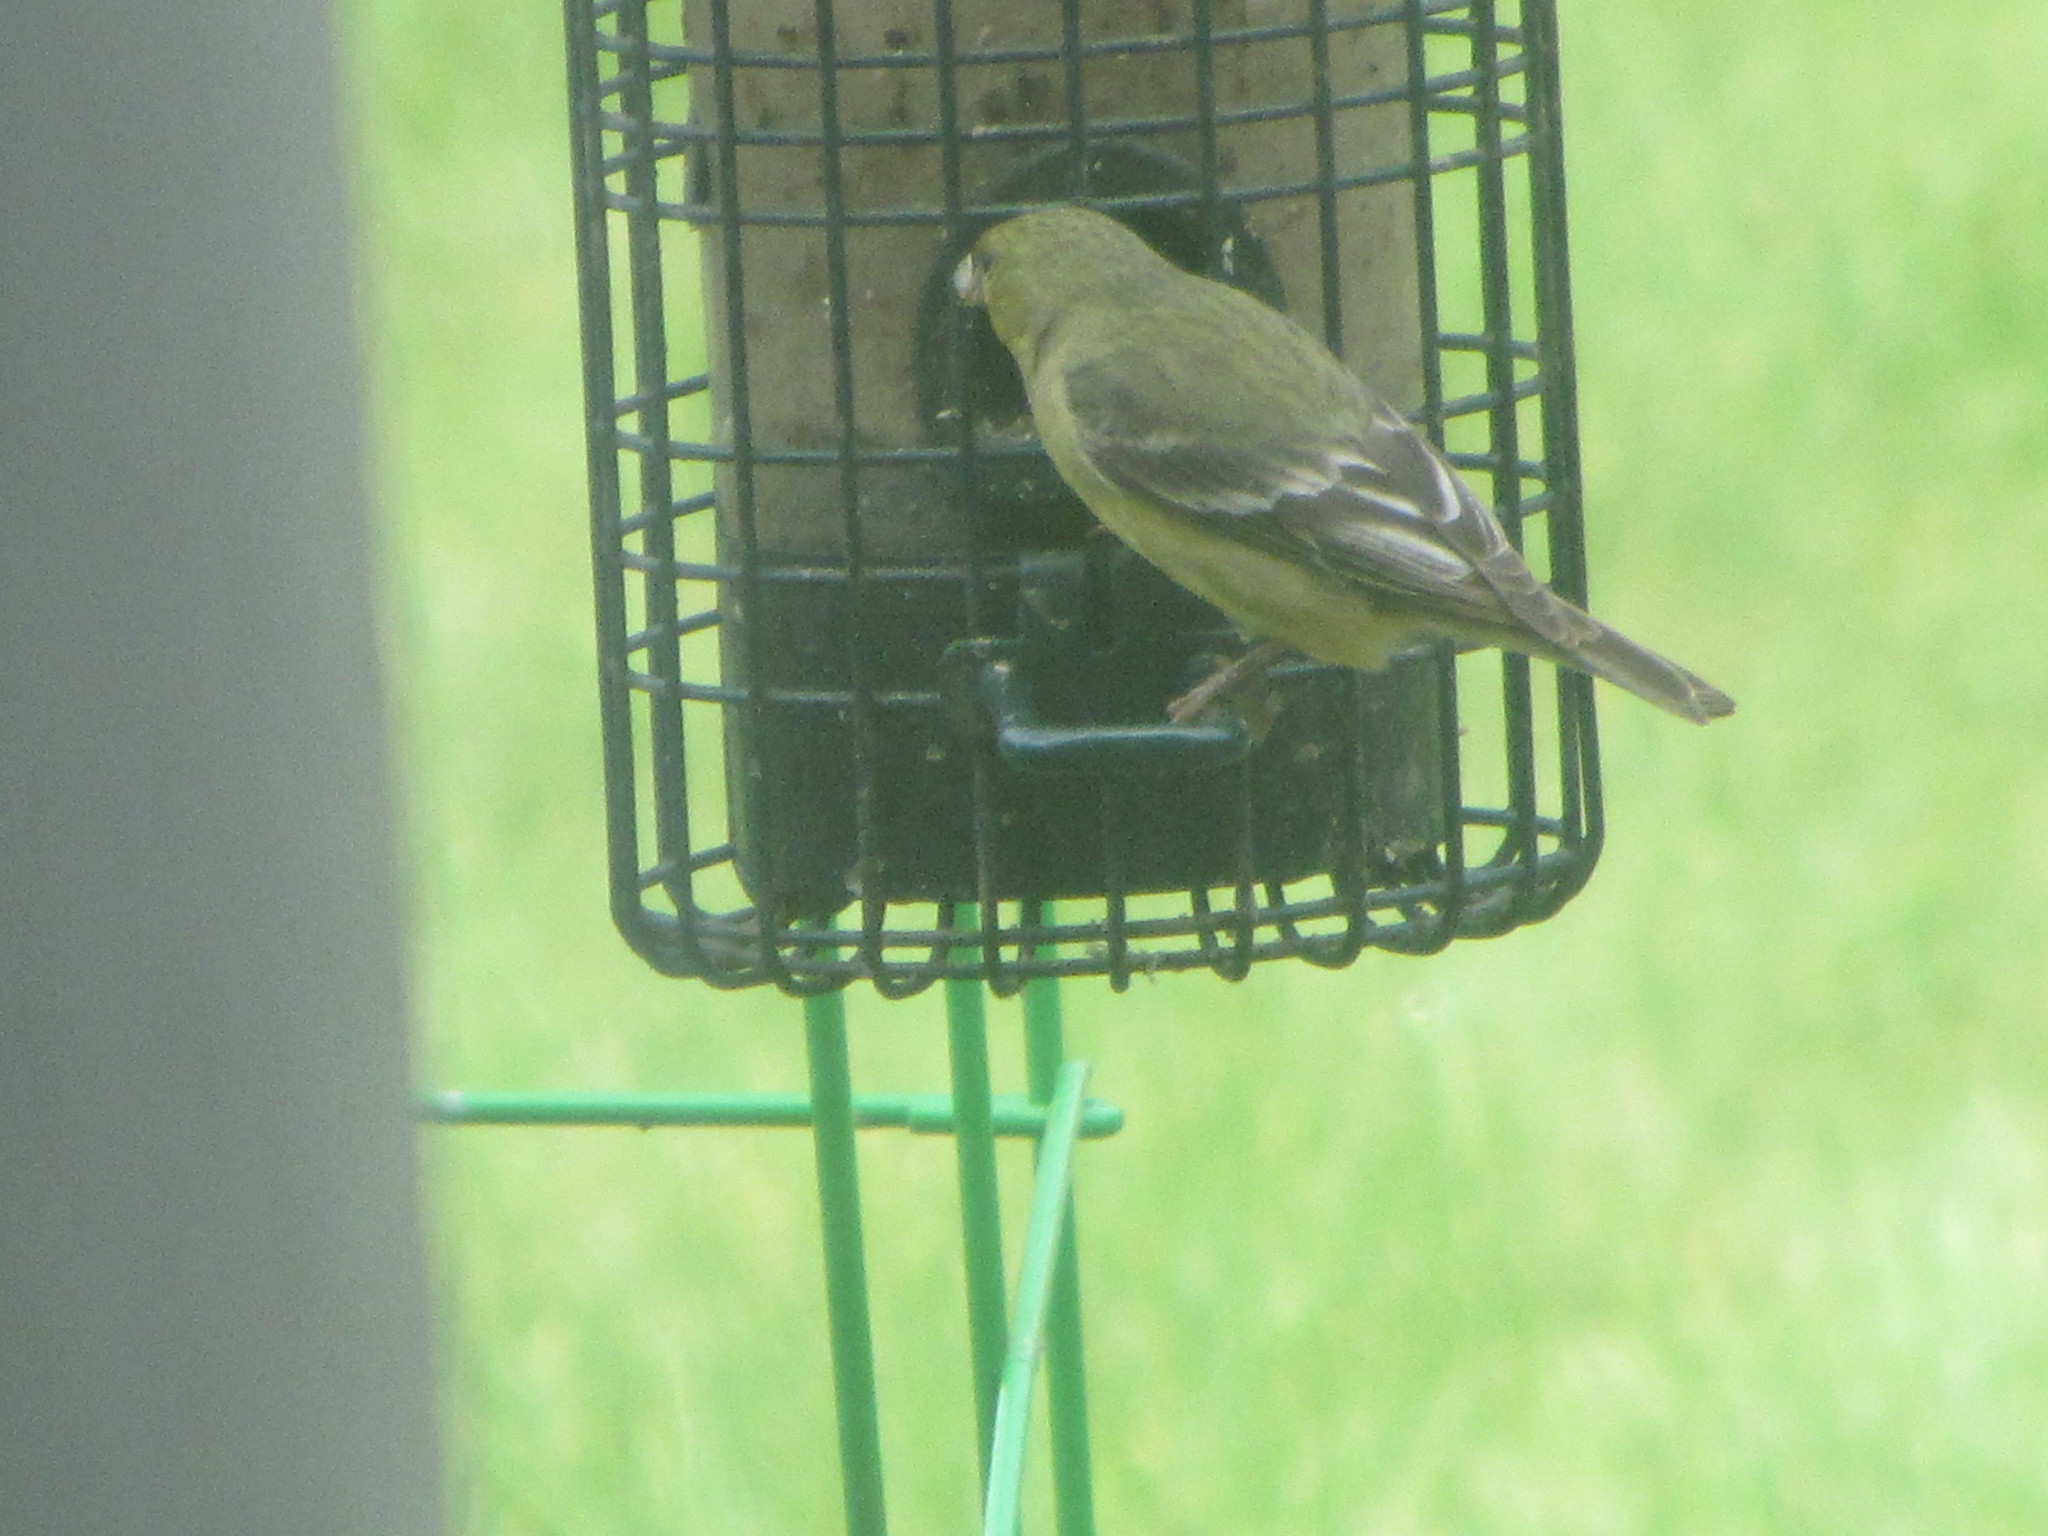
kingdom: Animalia
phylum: Chordata
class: Aves
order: Passeriformes
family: Fringillidae
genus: Spinus
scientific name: Spinus psaltria
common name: Lesser goldfinch
